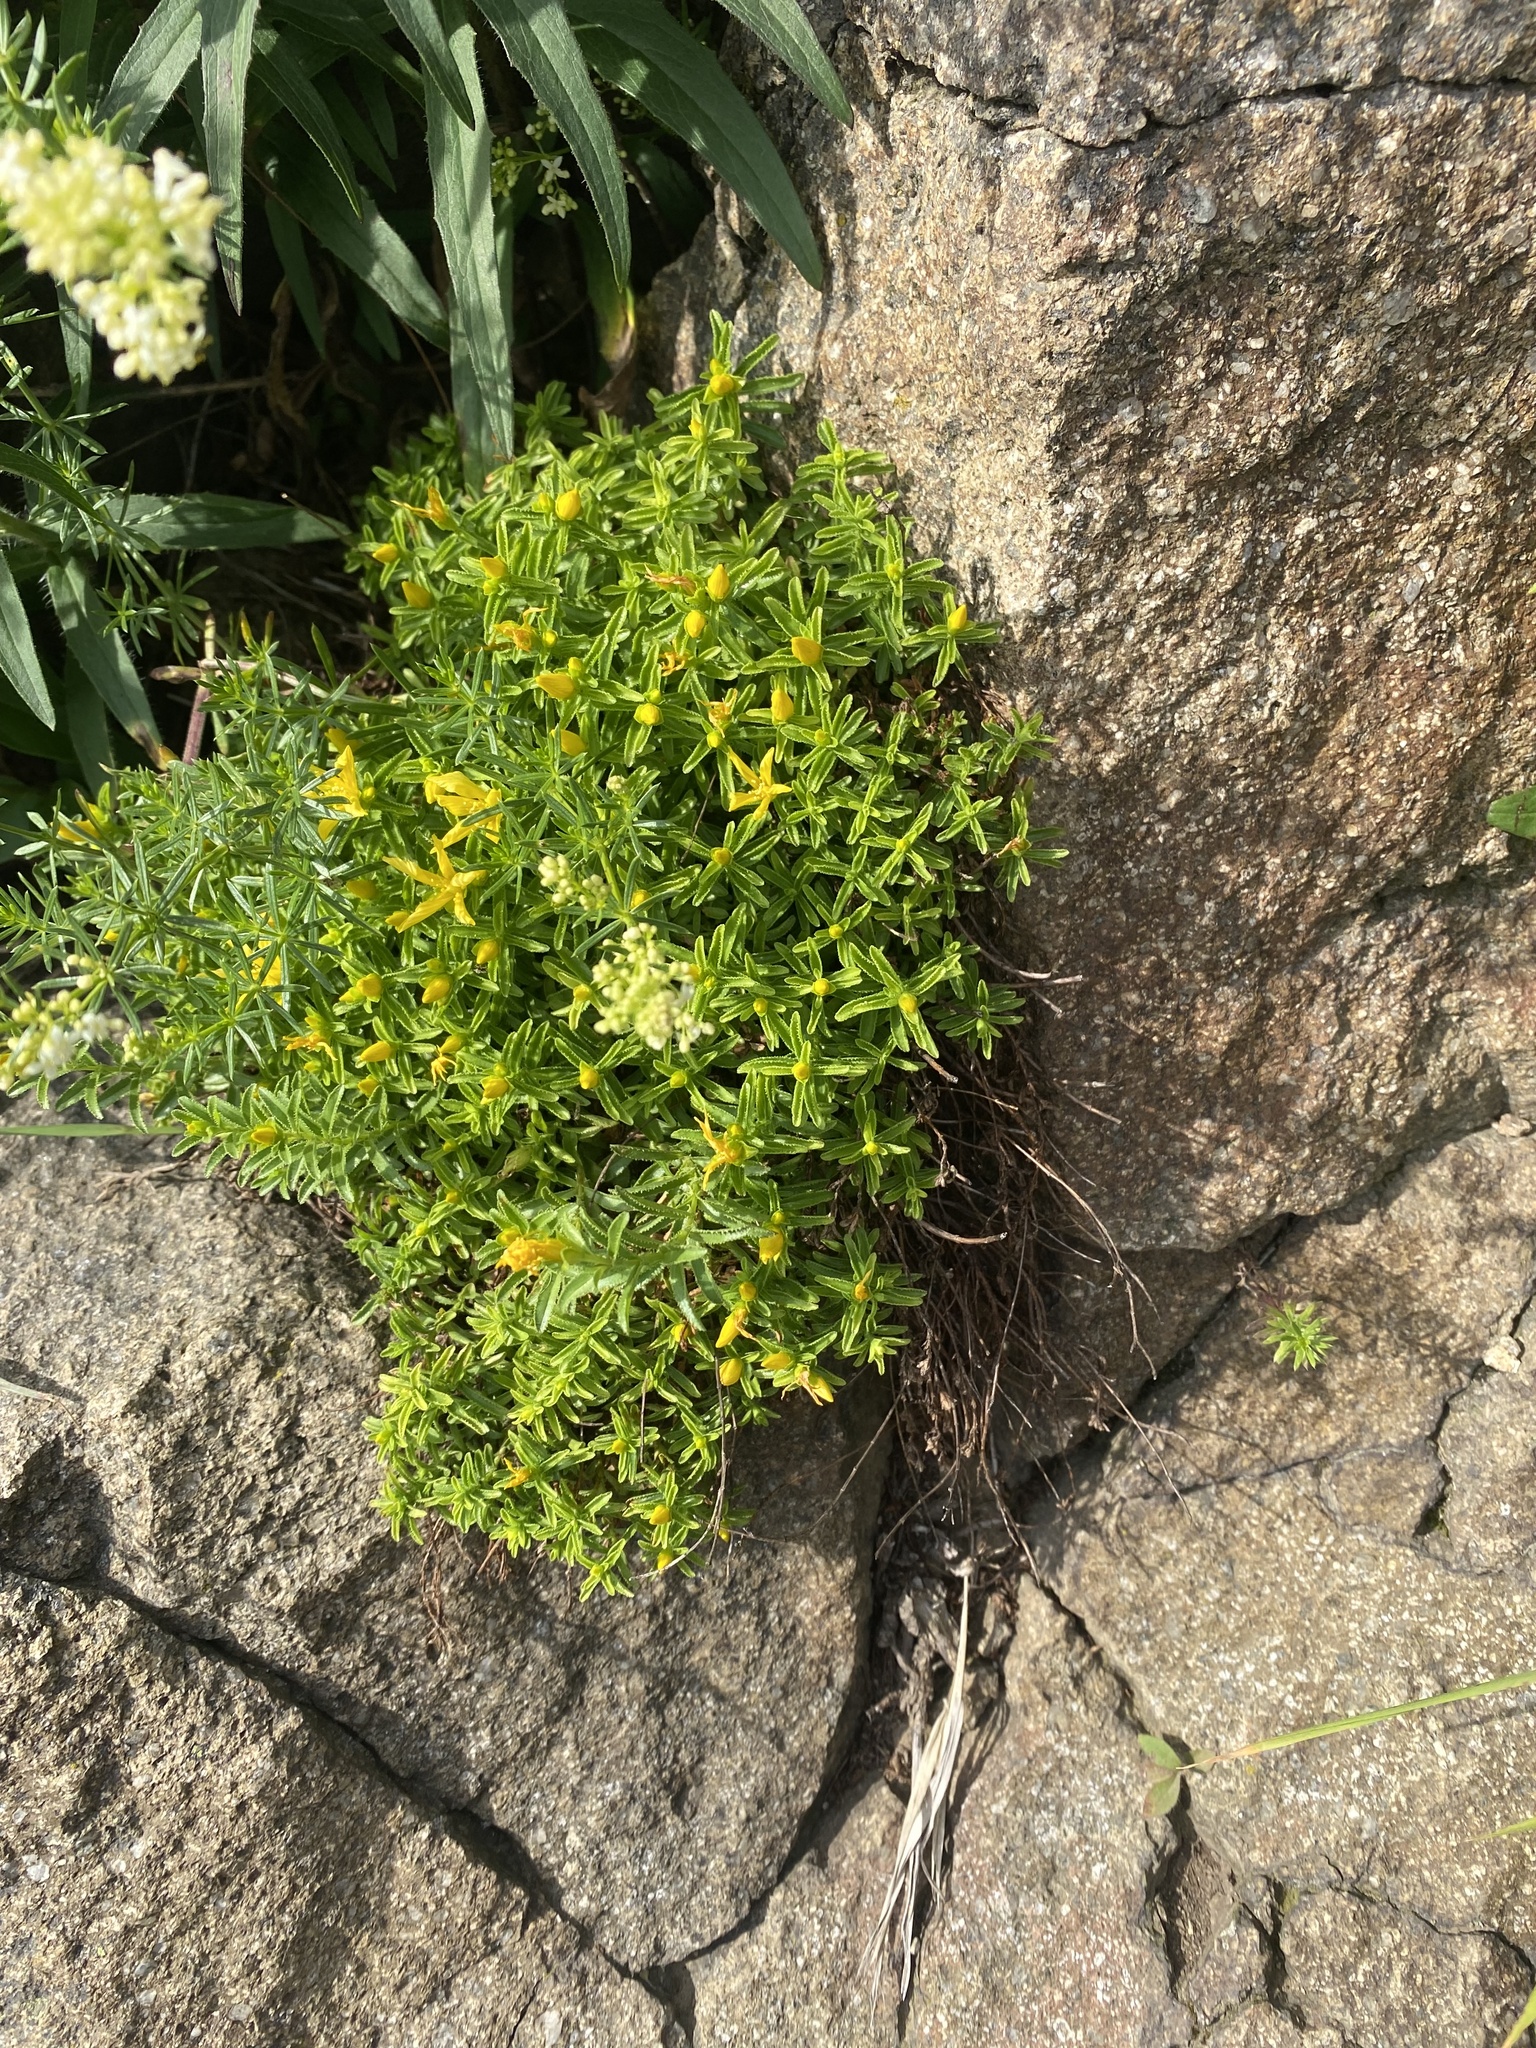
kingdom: Plantae
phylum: Tracheophyta
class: Magnoliopsida
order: Malpighiales
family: Hypericaceae
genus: Hypericum
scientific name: Hypericum orientale
